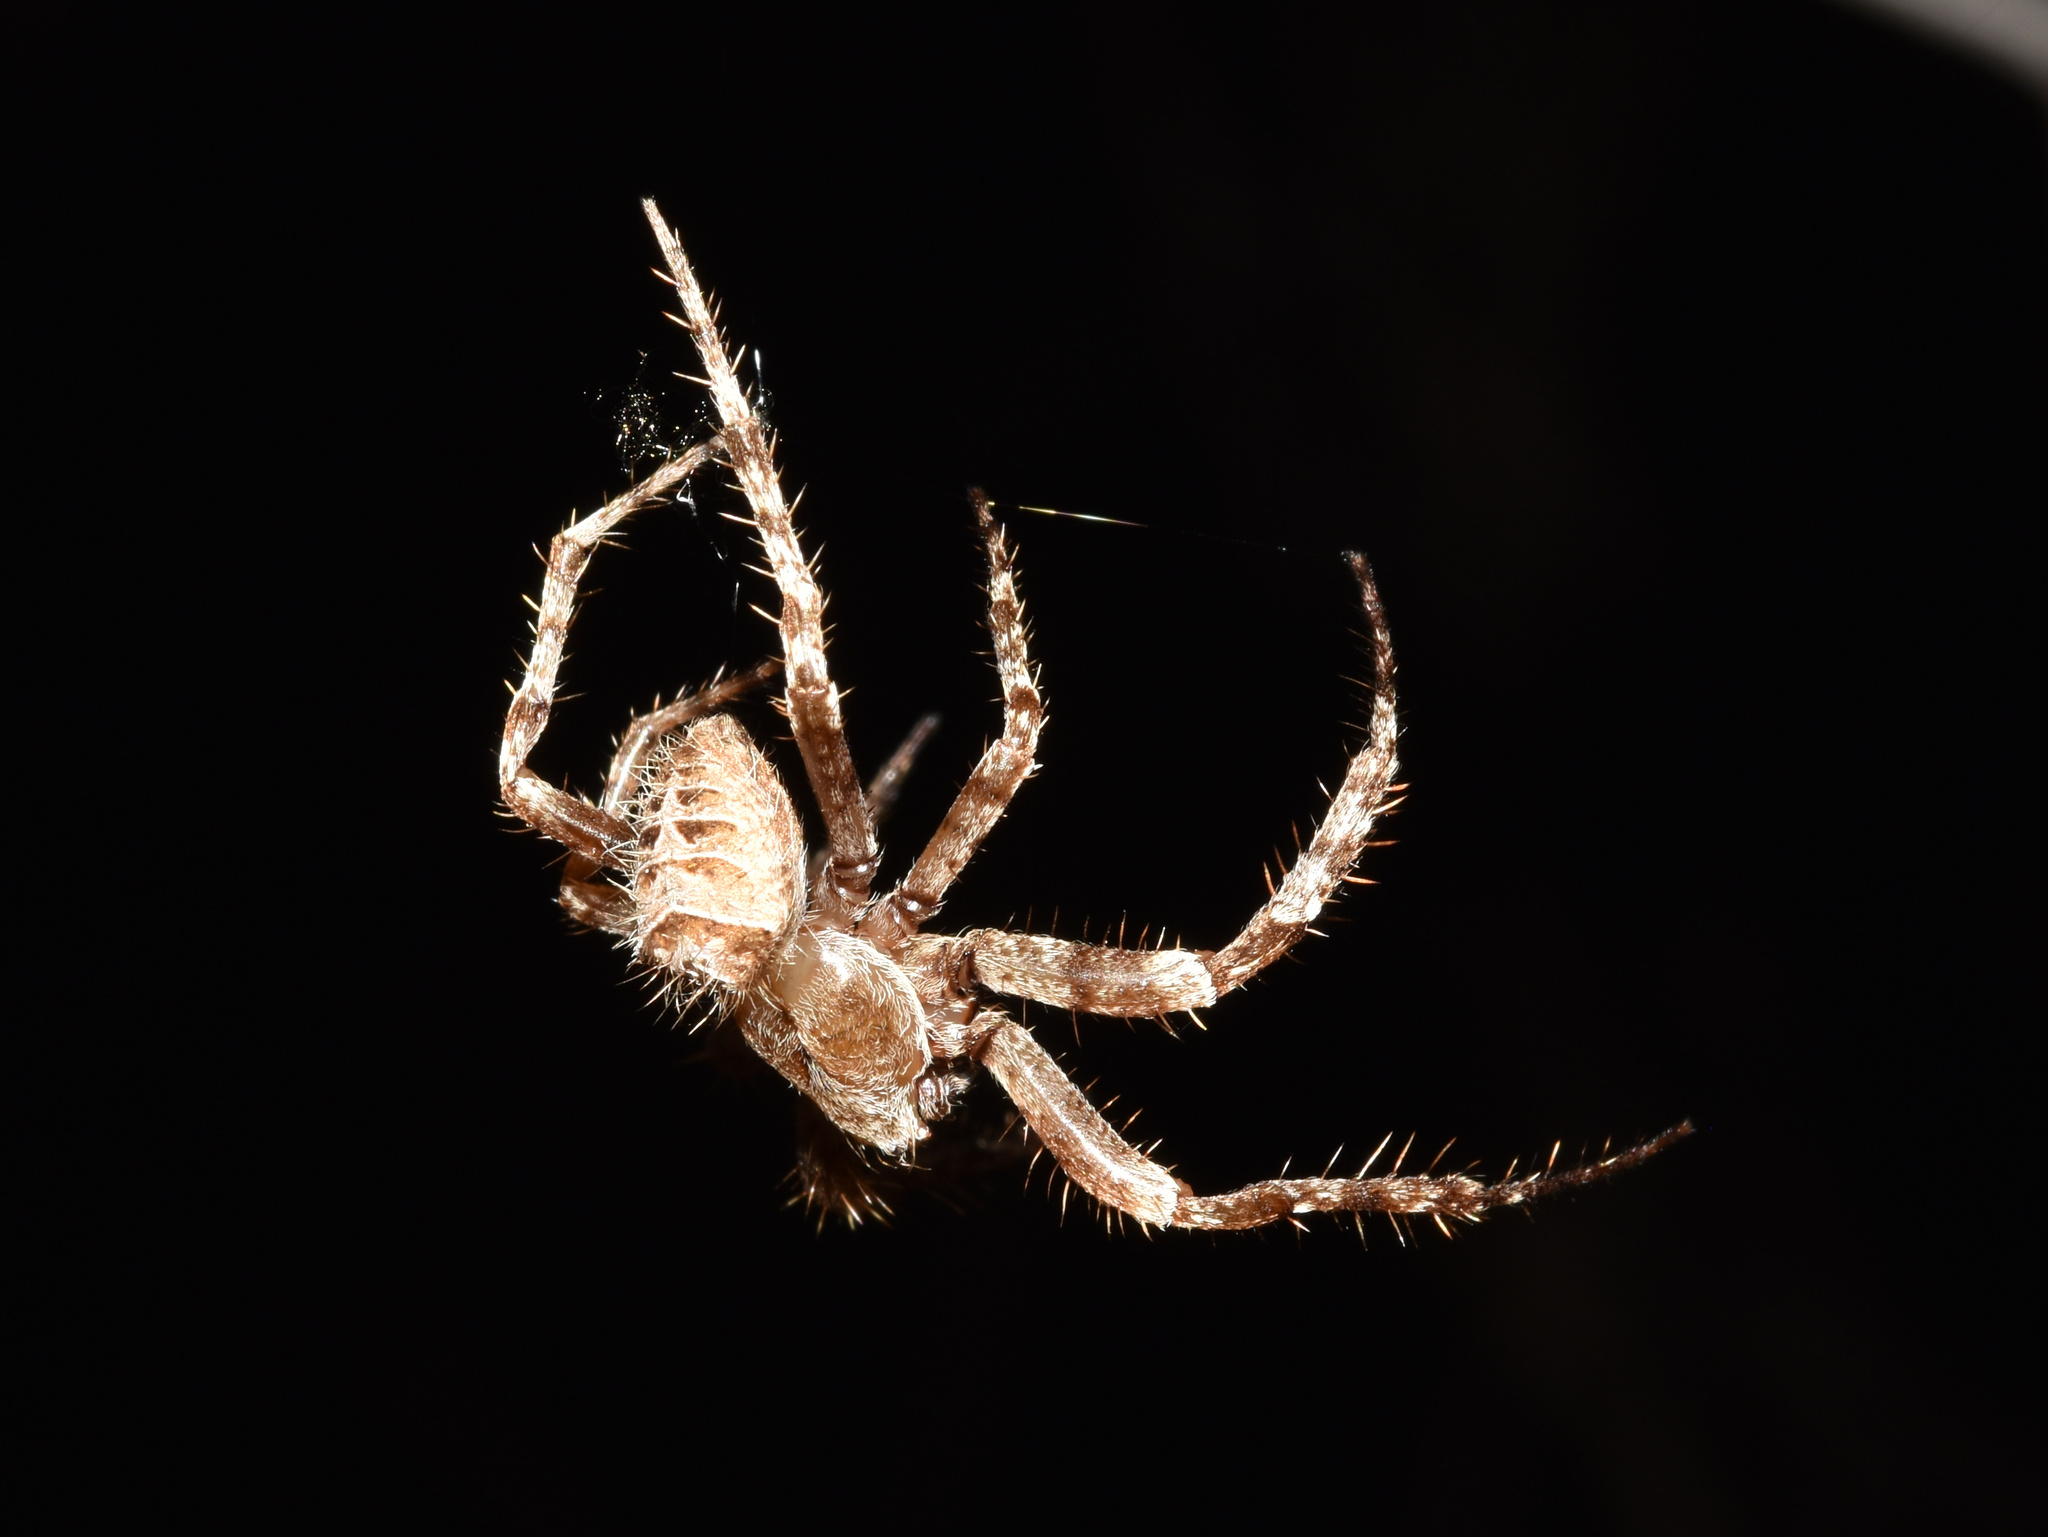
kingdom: Animalia
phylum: Arthropoda
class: Arachnida
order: Araneae
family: Araneidae
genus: Pararaneus
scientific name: Pararaneus cyrtoscapus
